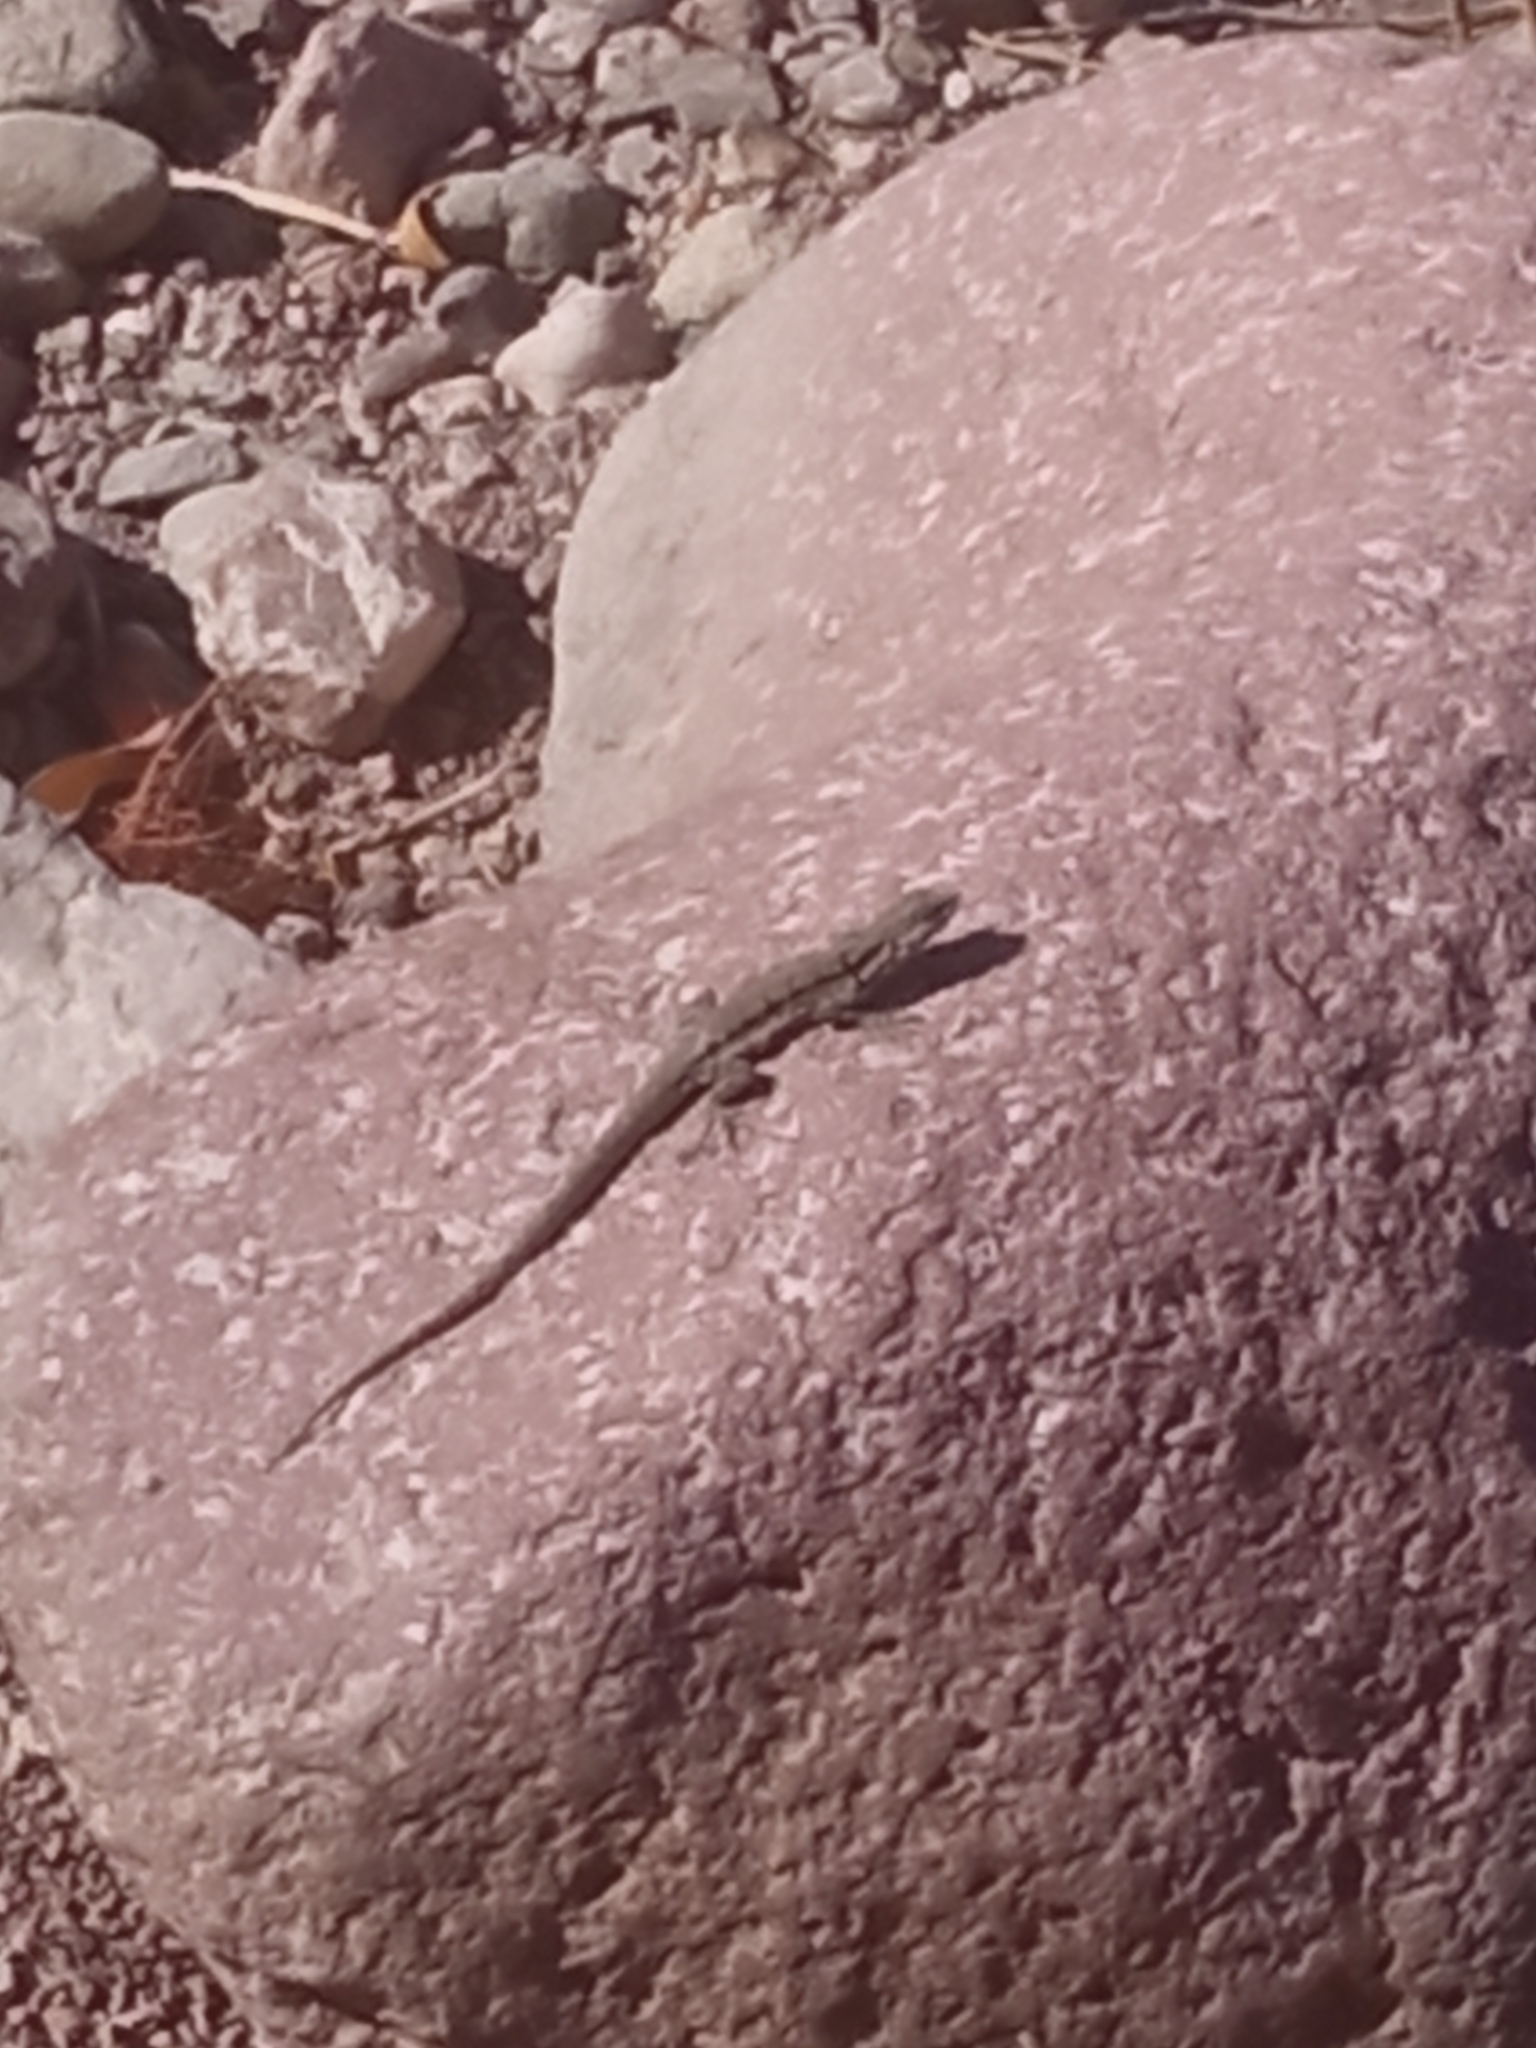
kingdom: Animalia
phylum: Chordata
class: Squamata
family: Phrynosomatidae
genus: Urosaurus
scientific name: Urosaurus ornatus
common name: Ornate tree lizard
